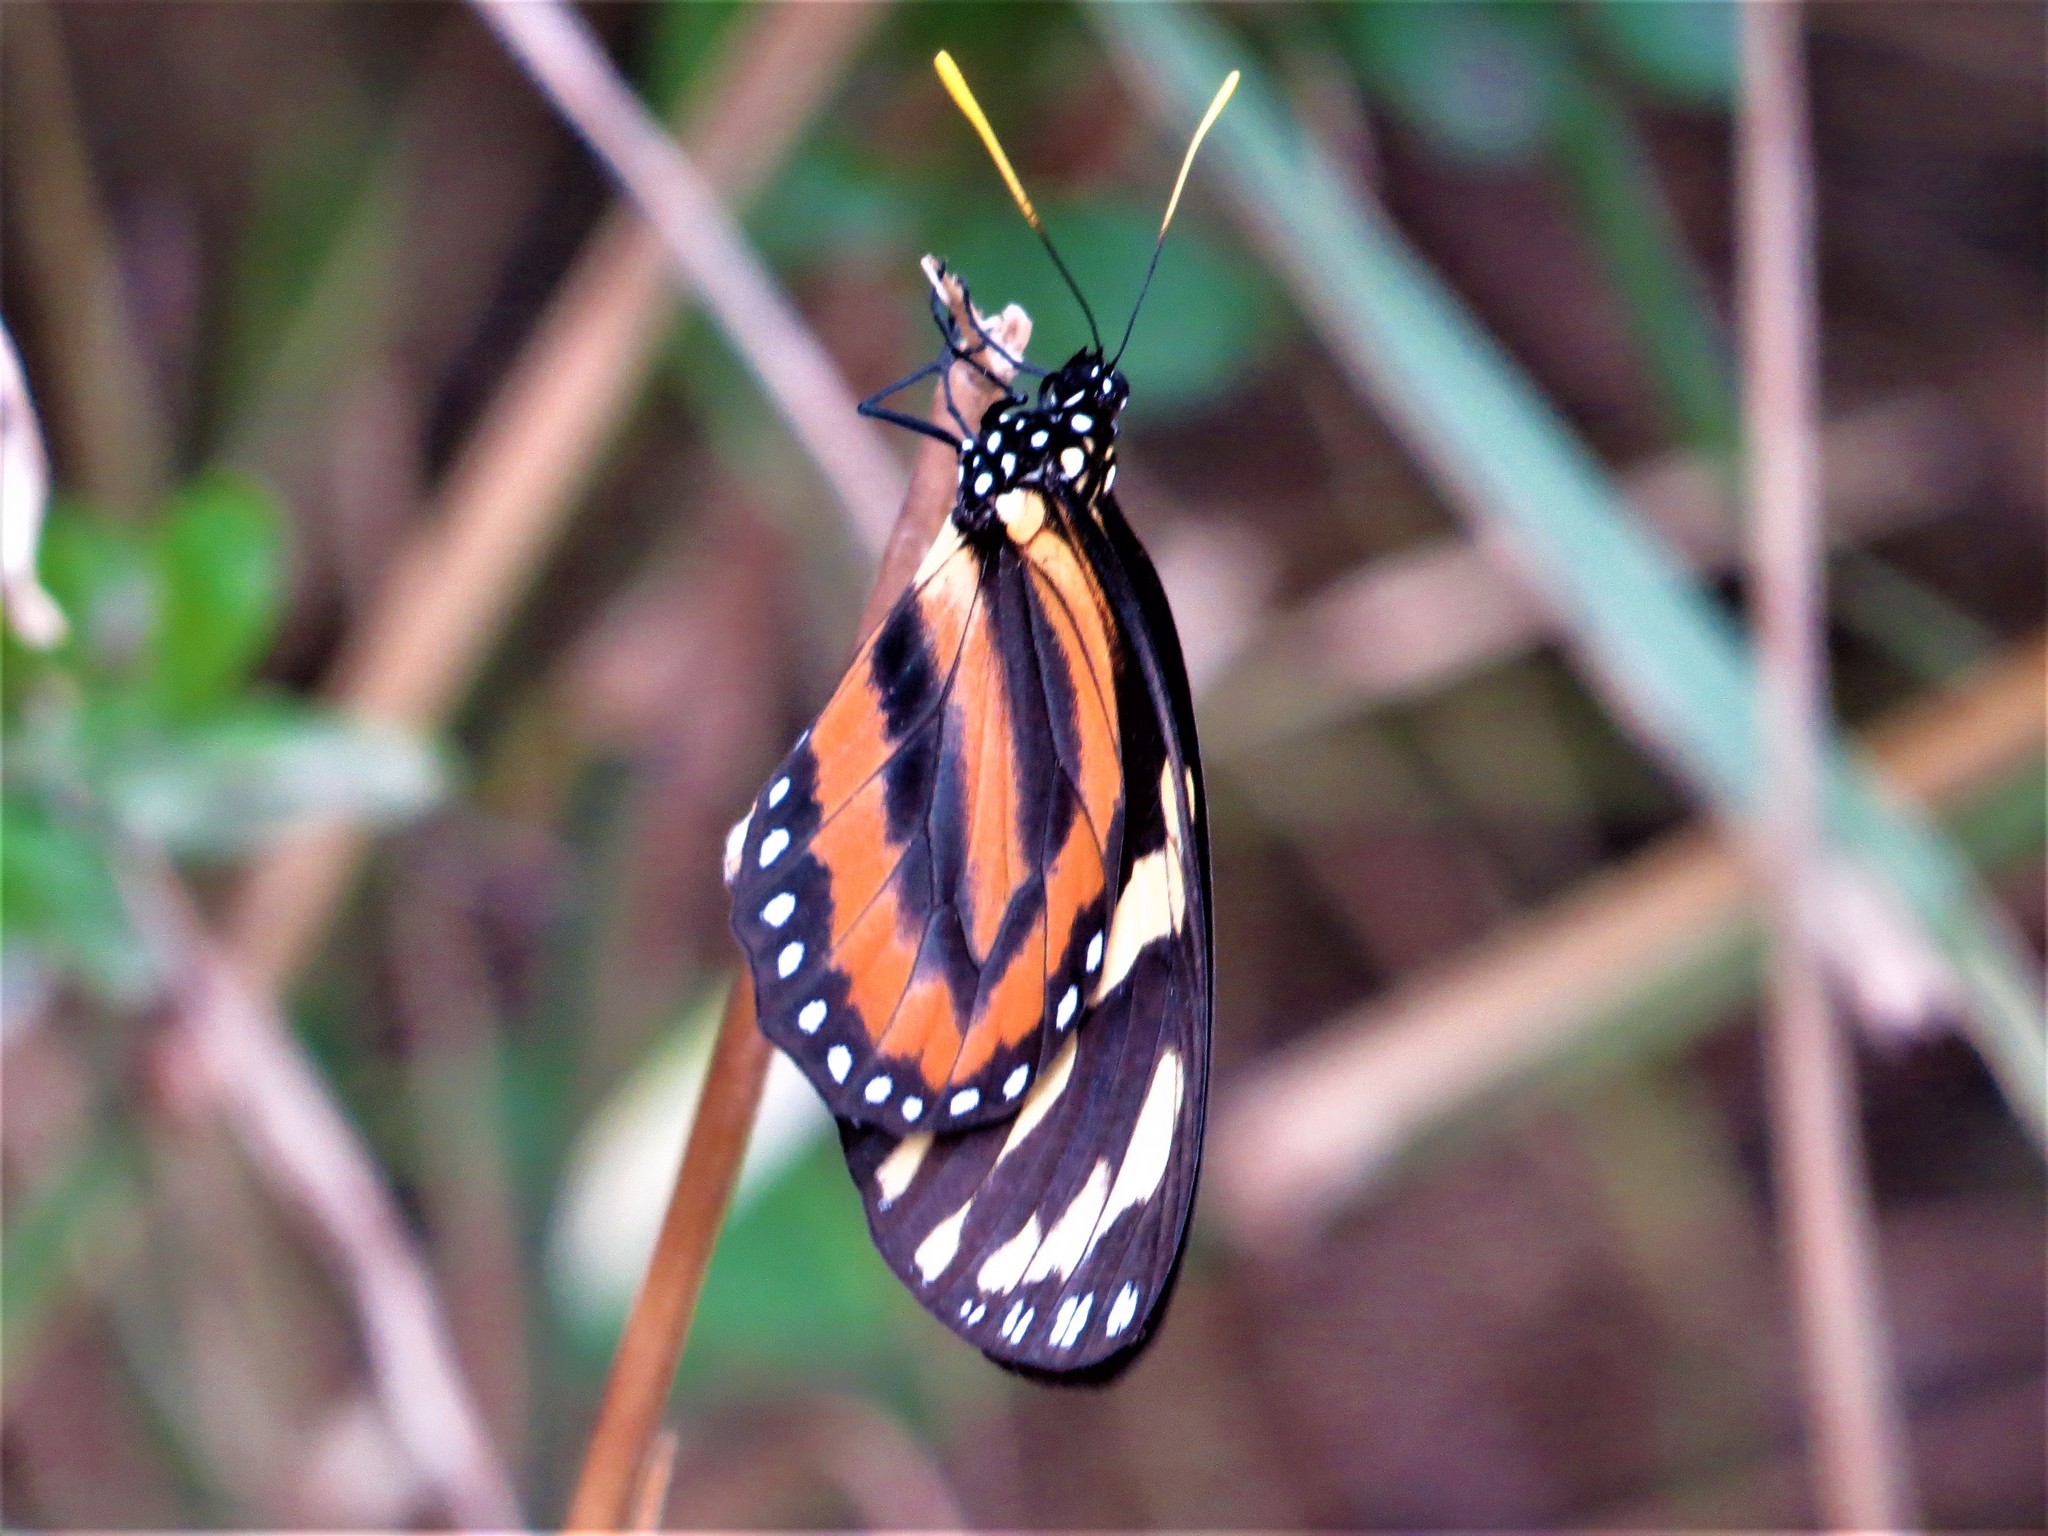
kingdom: Animalia
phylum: Arthropoda
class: Insecta
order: Lepidoptera
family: Nymphalidae
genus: Lycorea
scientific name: Lycorea cleobaea
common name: Tiger mimic-queen
